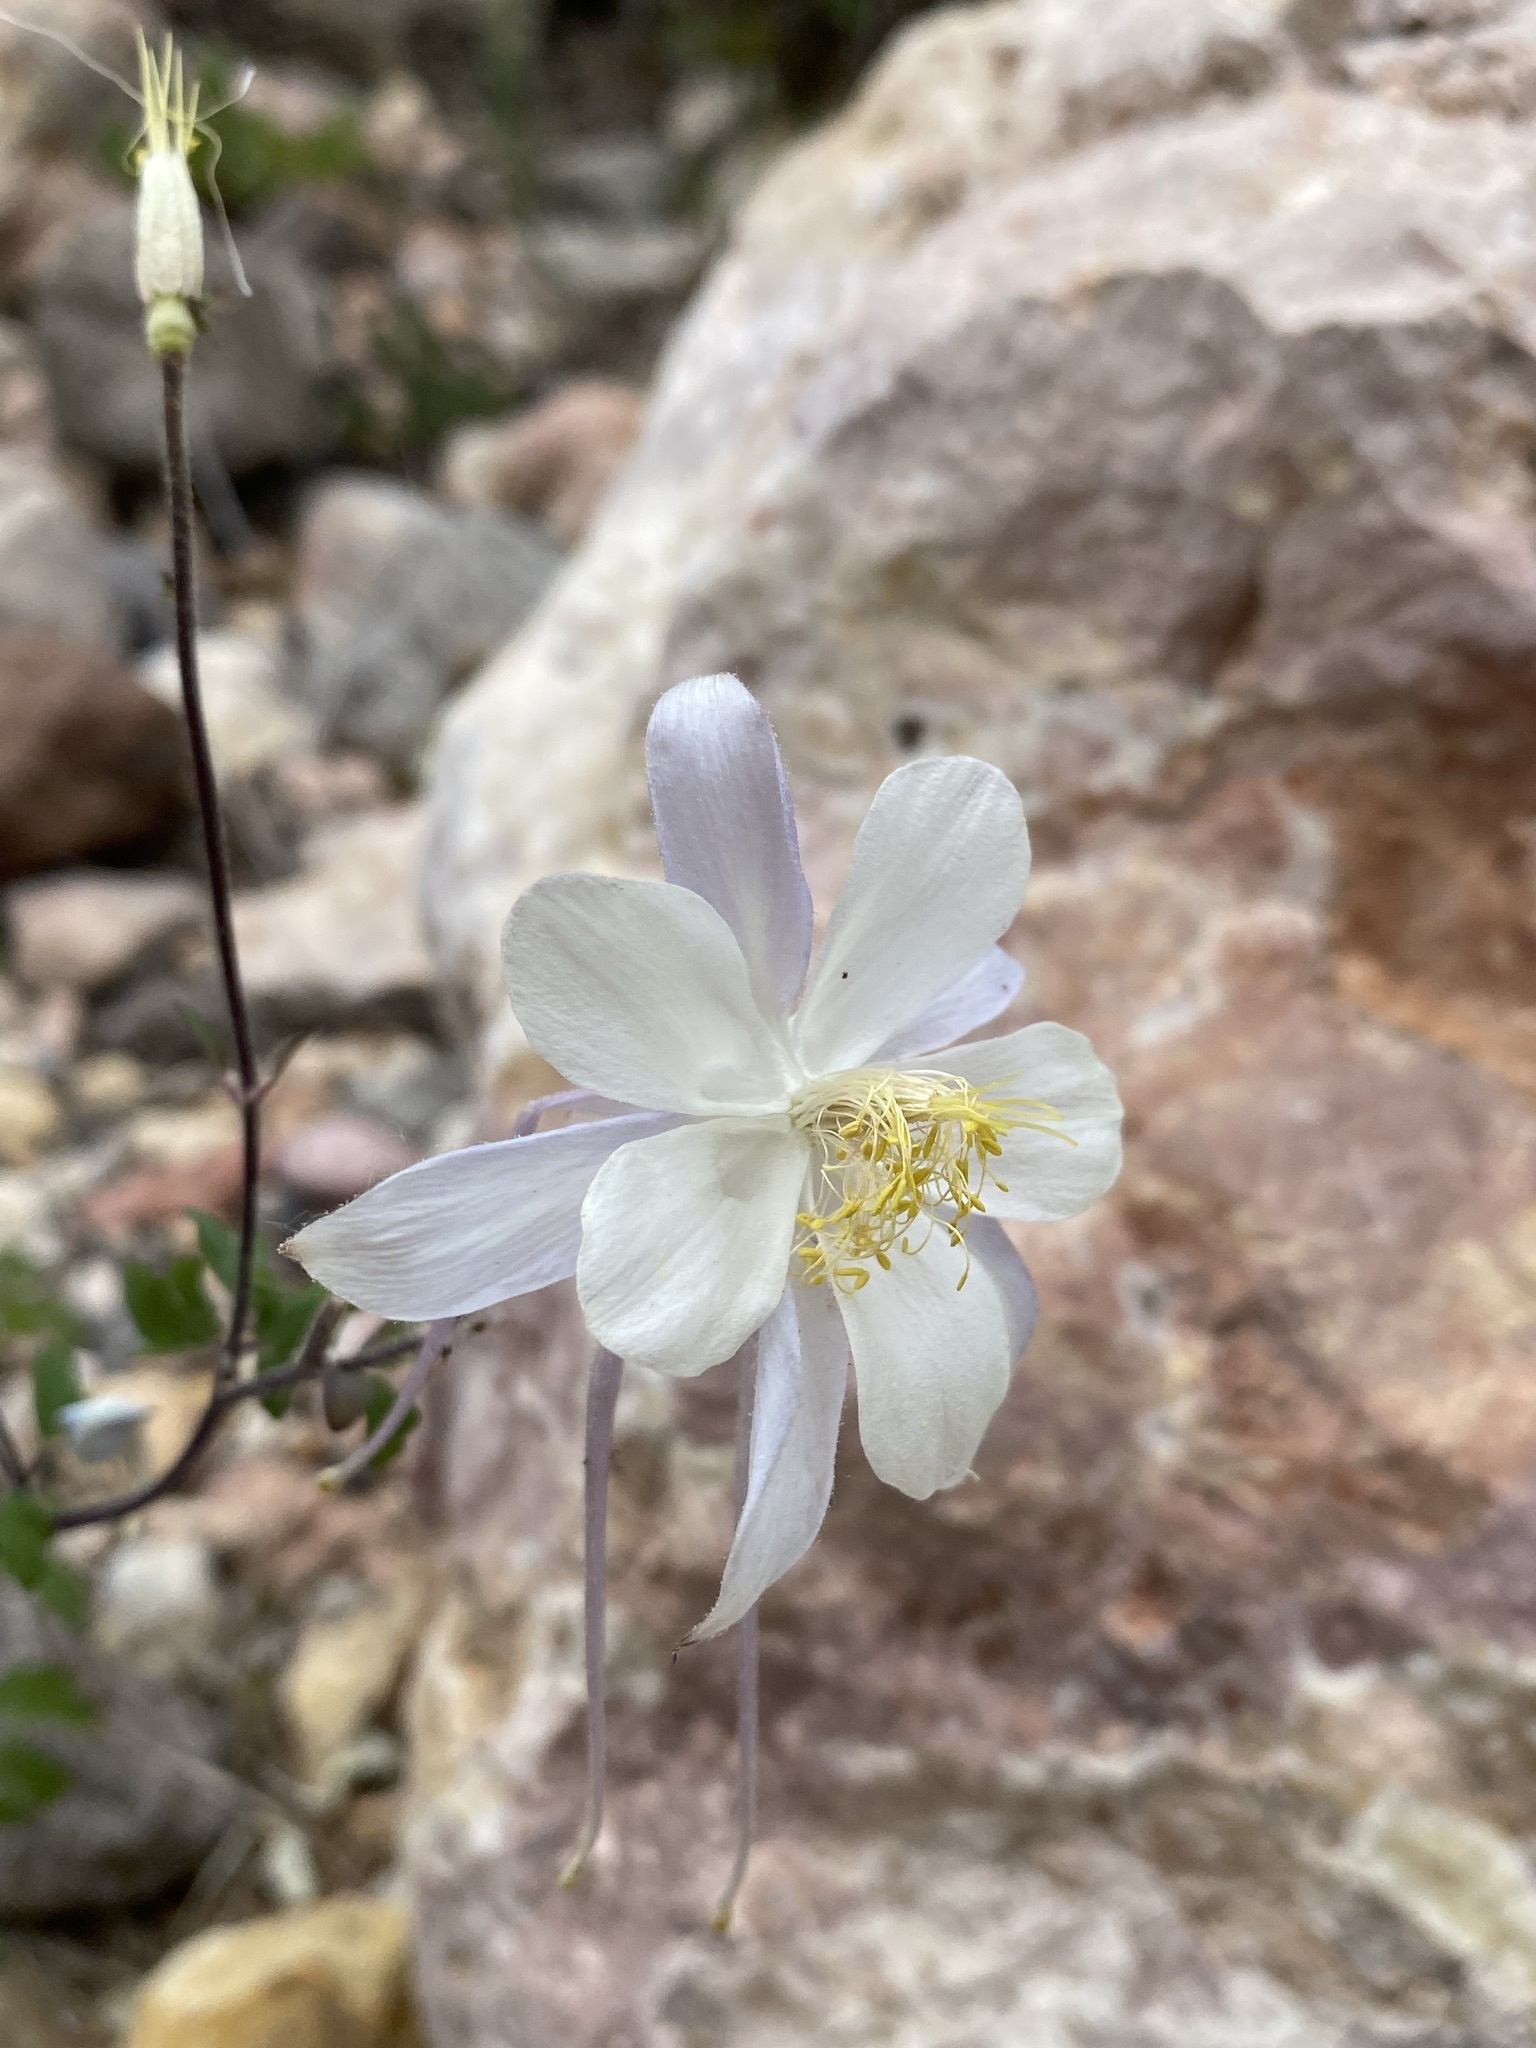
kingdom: Plantae
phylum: Tracheophyta
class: Magnoliopsida
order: Ranunculales
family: Ranunculaceae
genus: Aquilegia
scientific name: Aquilegia coerulea
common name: Rocky mountain columbine
